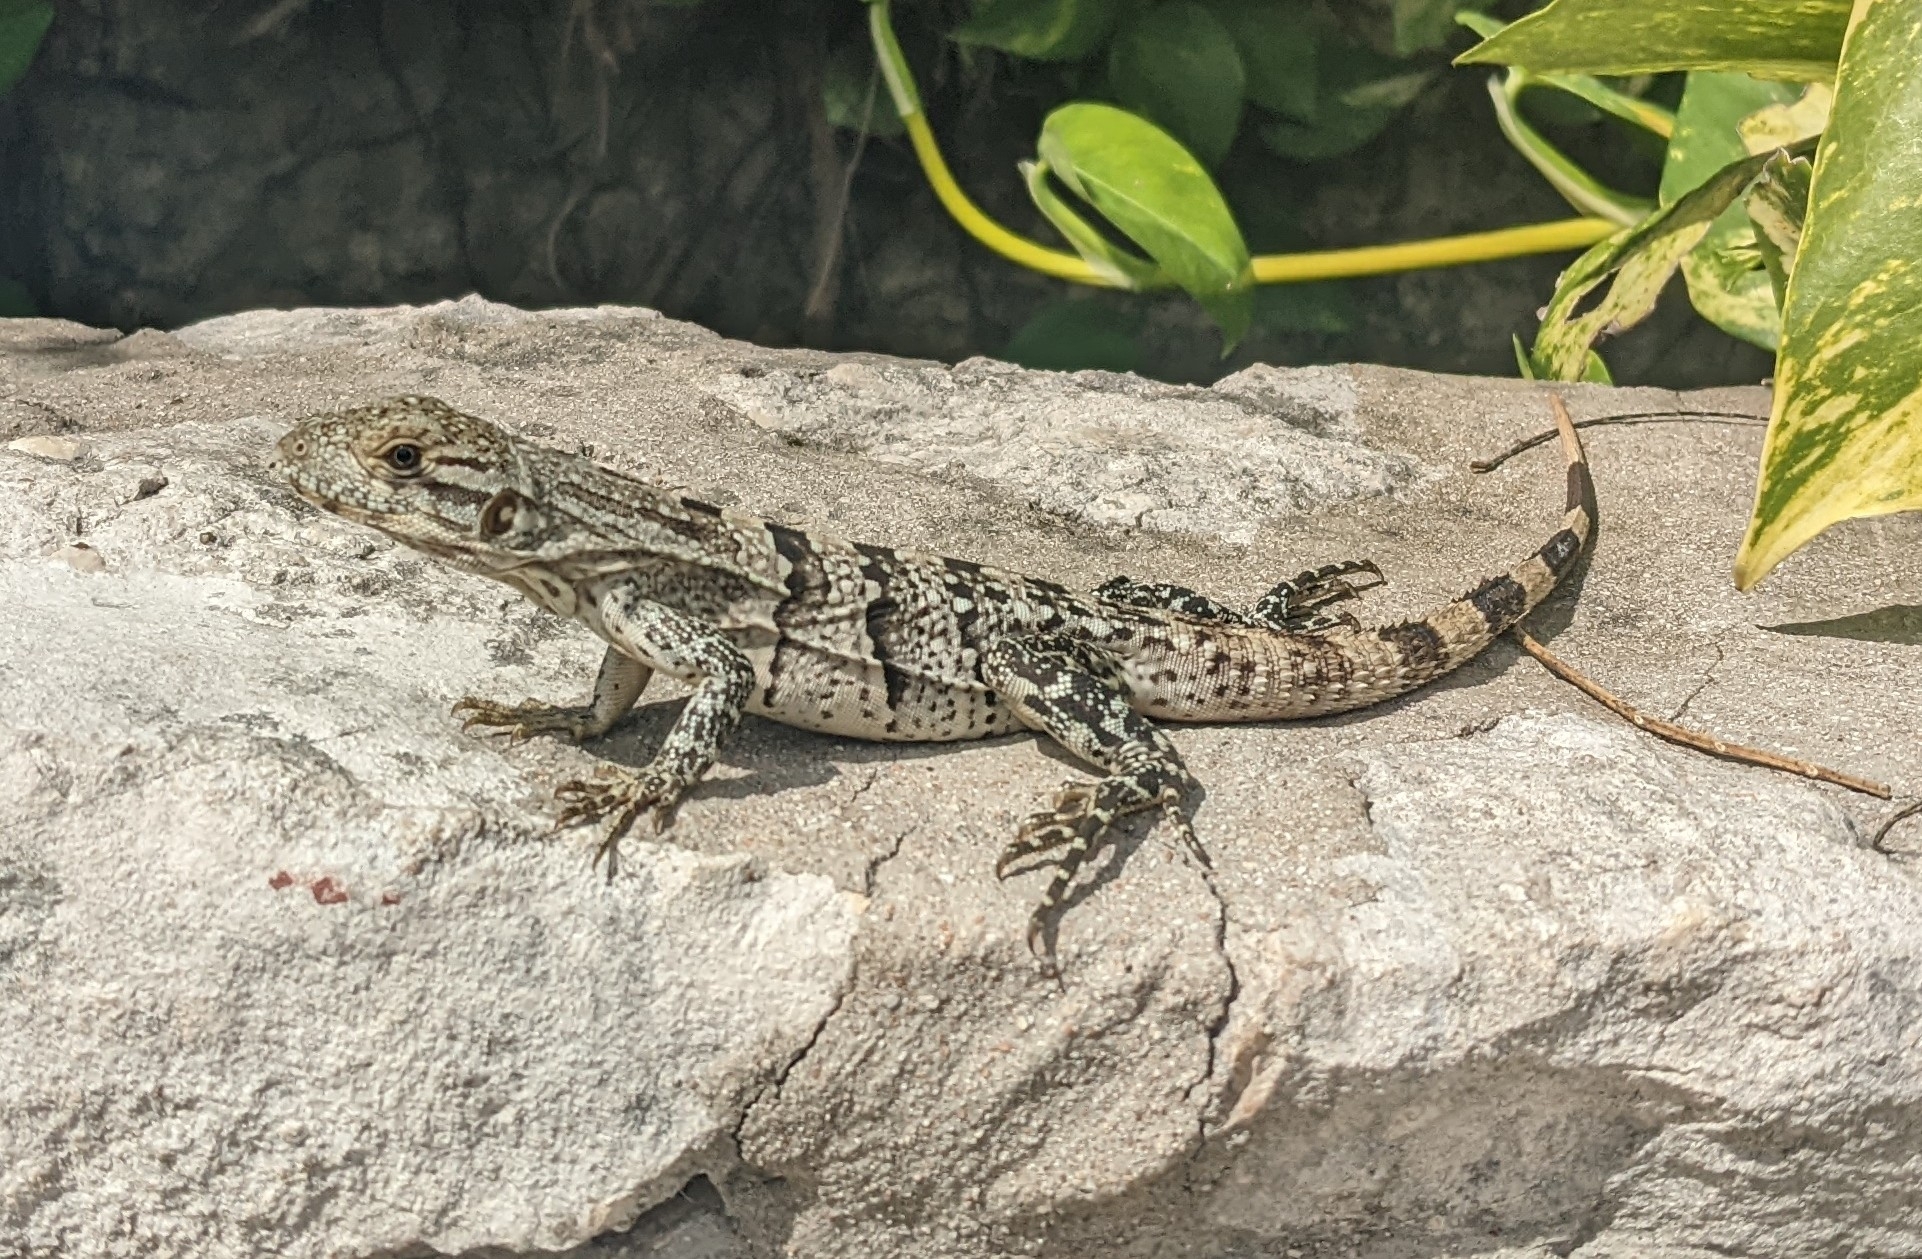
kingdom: Animalia
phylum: Chordata
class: Squamata
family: Iguanidae
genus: Ctenosaura
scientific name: Ctenosaura similis
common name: Black spiny-tailed iguana
